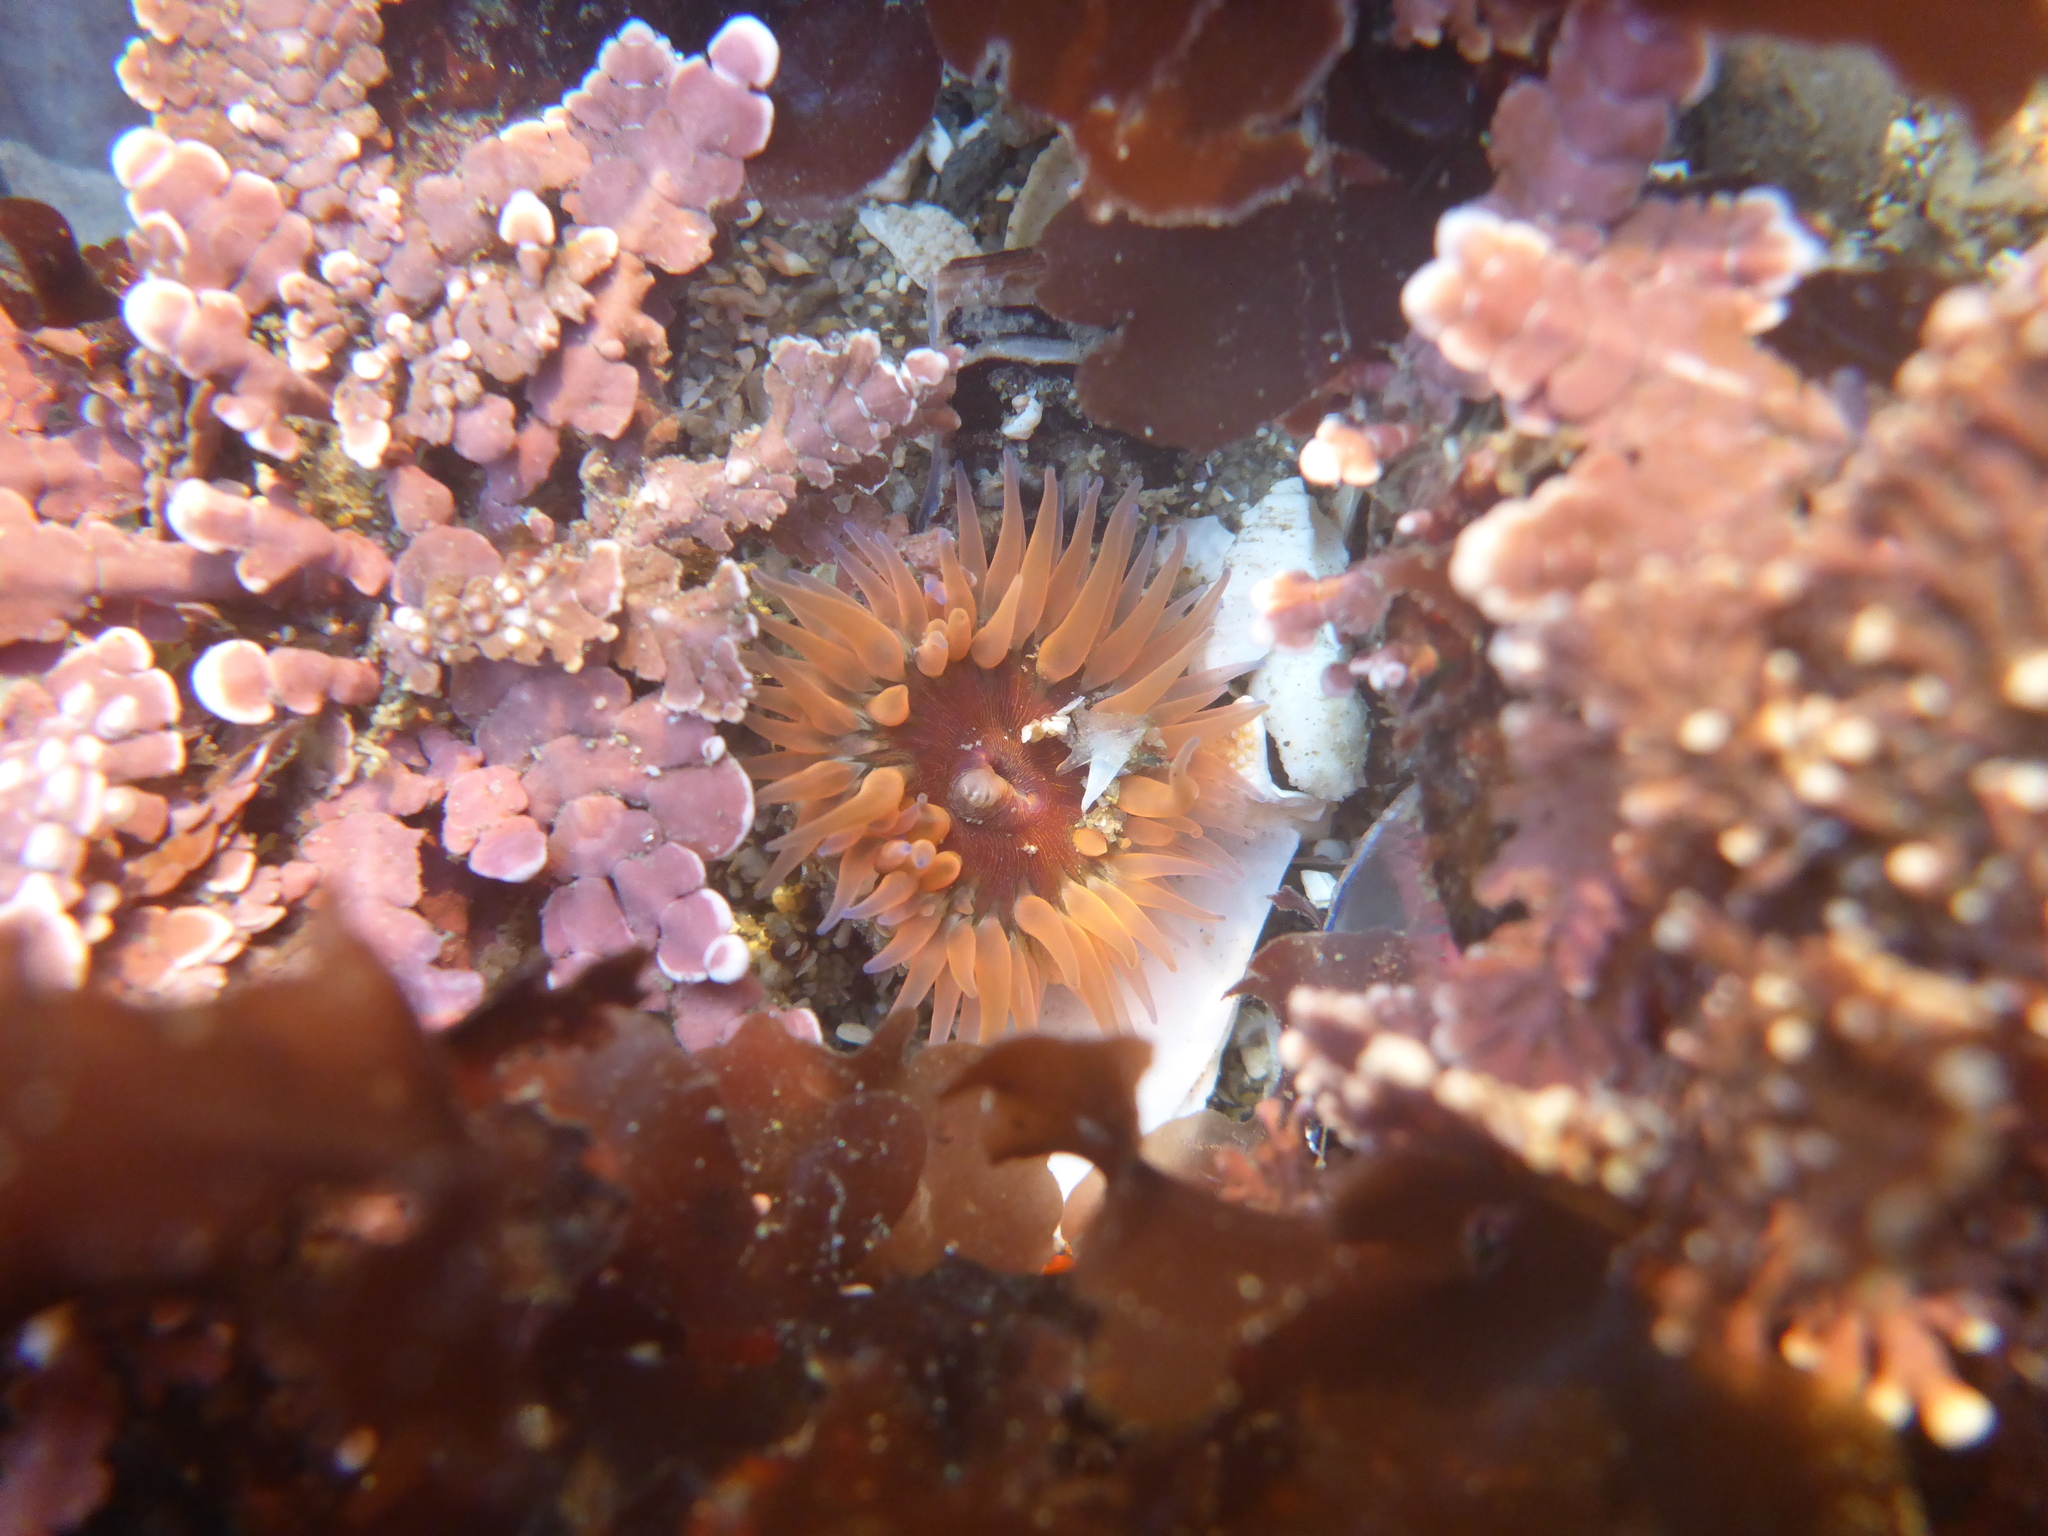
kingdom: Animalia
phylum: Cnidaria
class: Anthozoa
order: Actiniaria
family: Actiniidae
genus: Anthopleura
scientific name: Anthopleura artemisia
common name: Buried sea anemone
